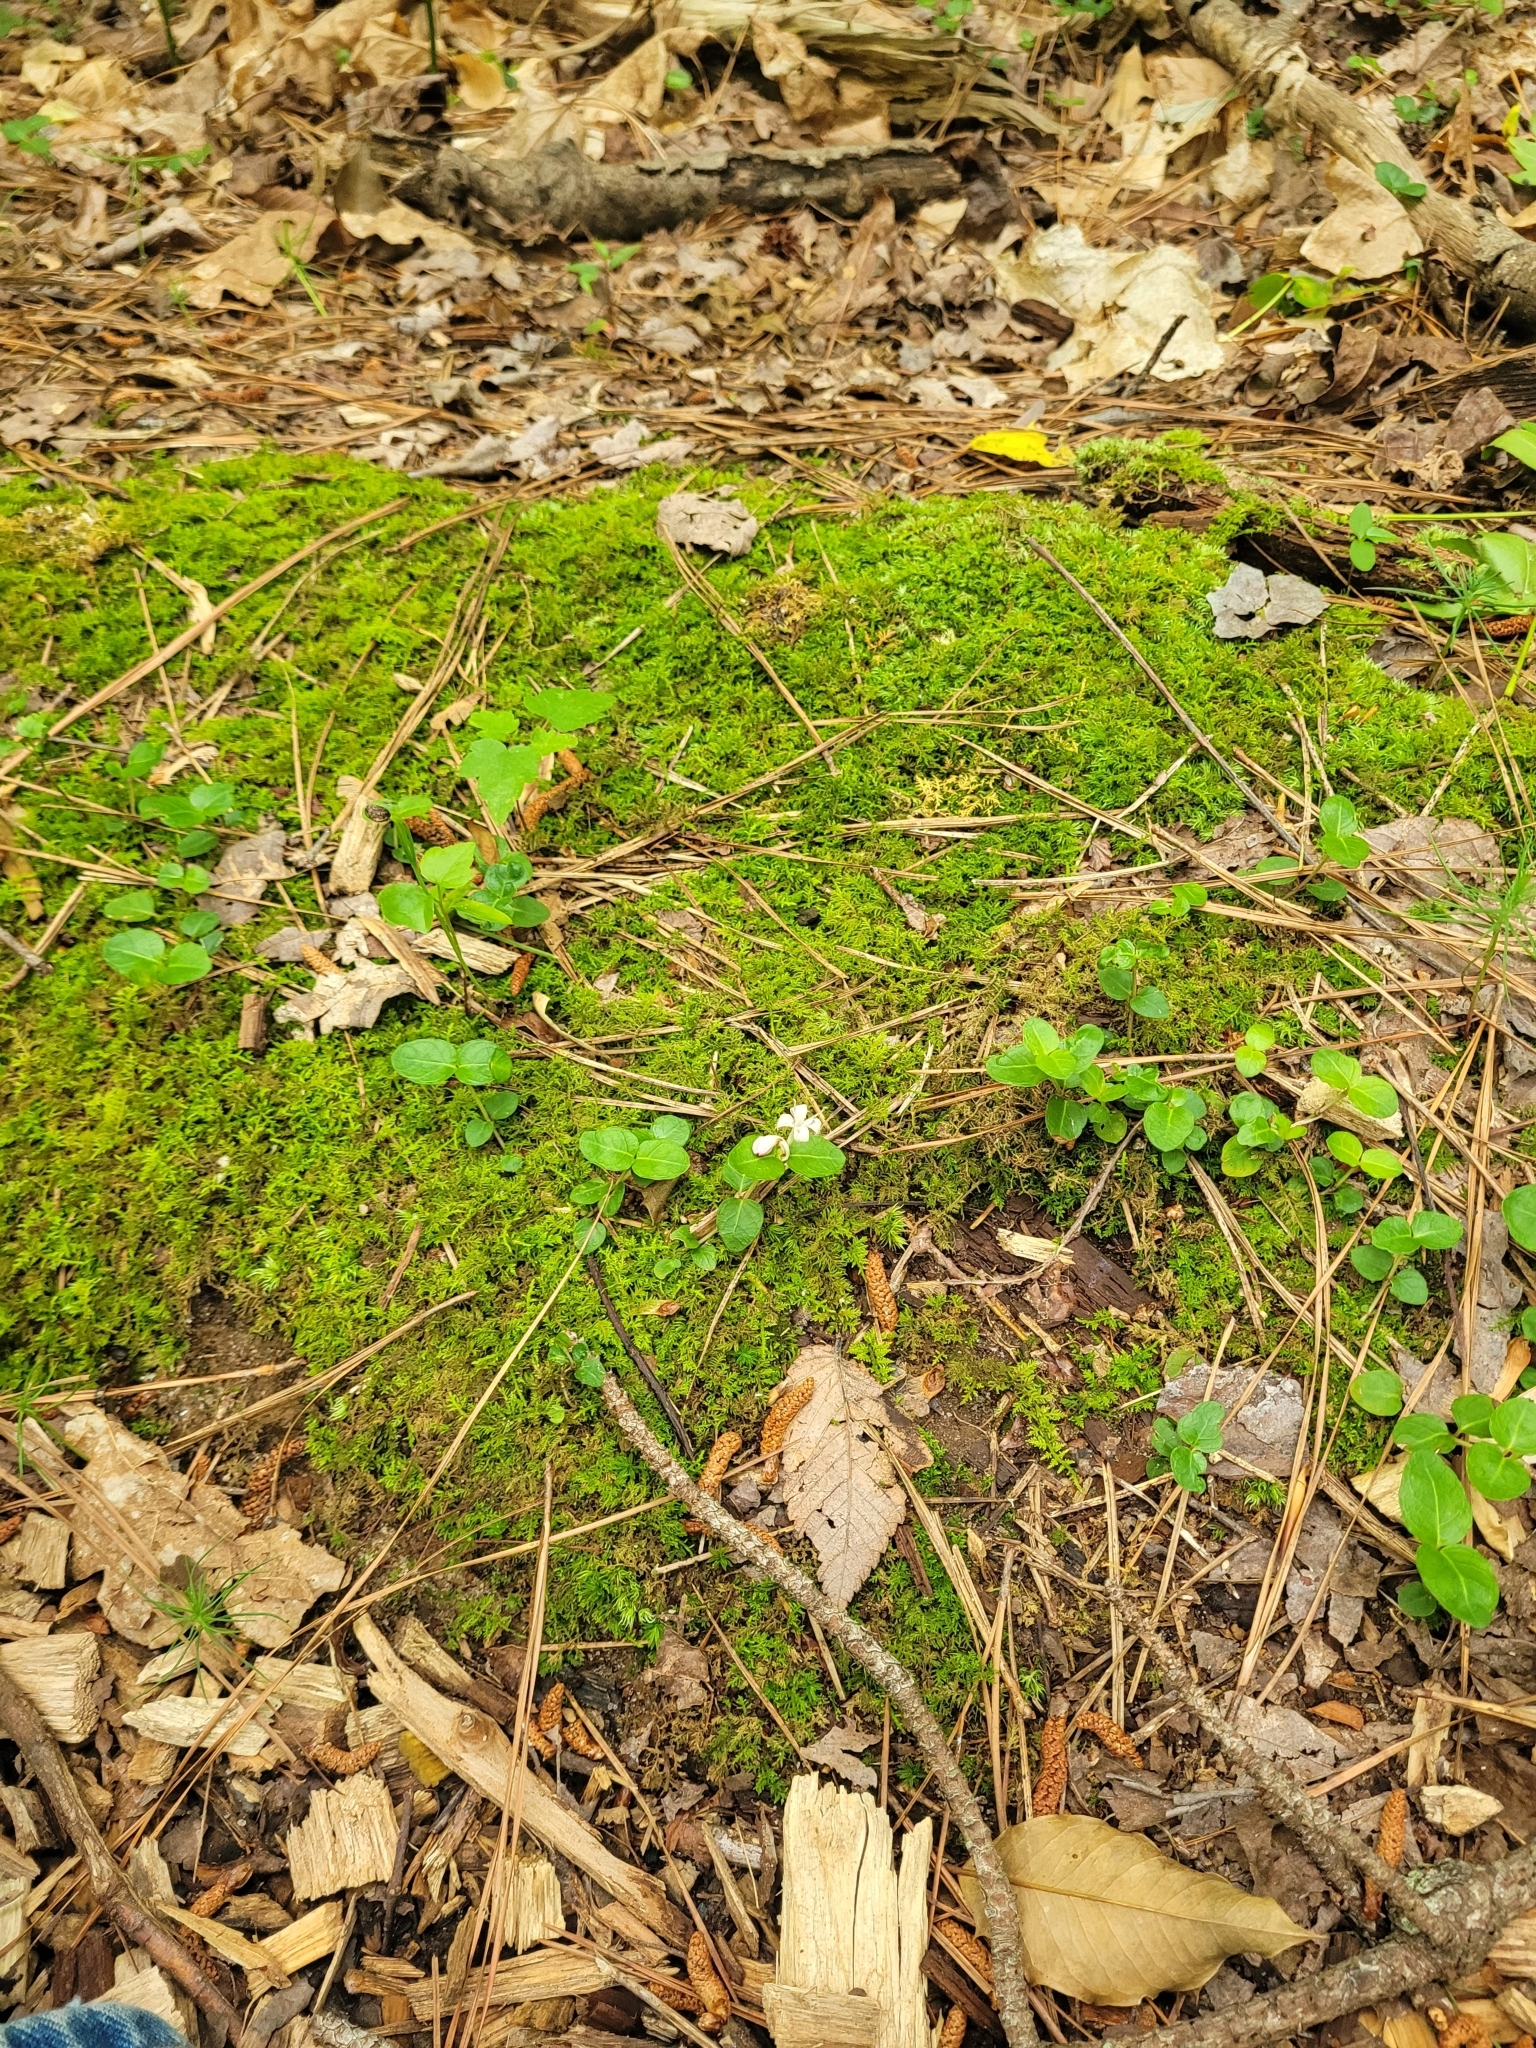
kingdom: Plantae
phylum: Tracheophyta
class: Magnoliopsida
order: Gentianales
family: Rubiaceae
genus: Mitchella
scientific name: Mitchella repens
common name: Partridge-berry
